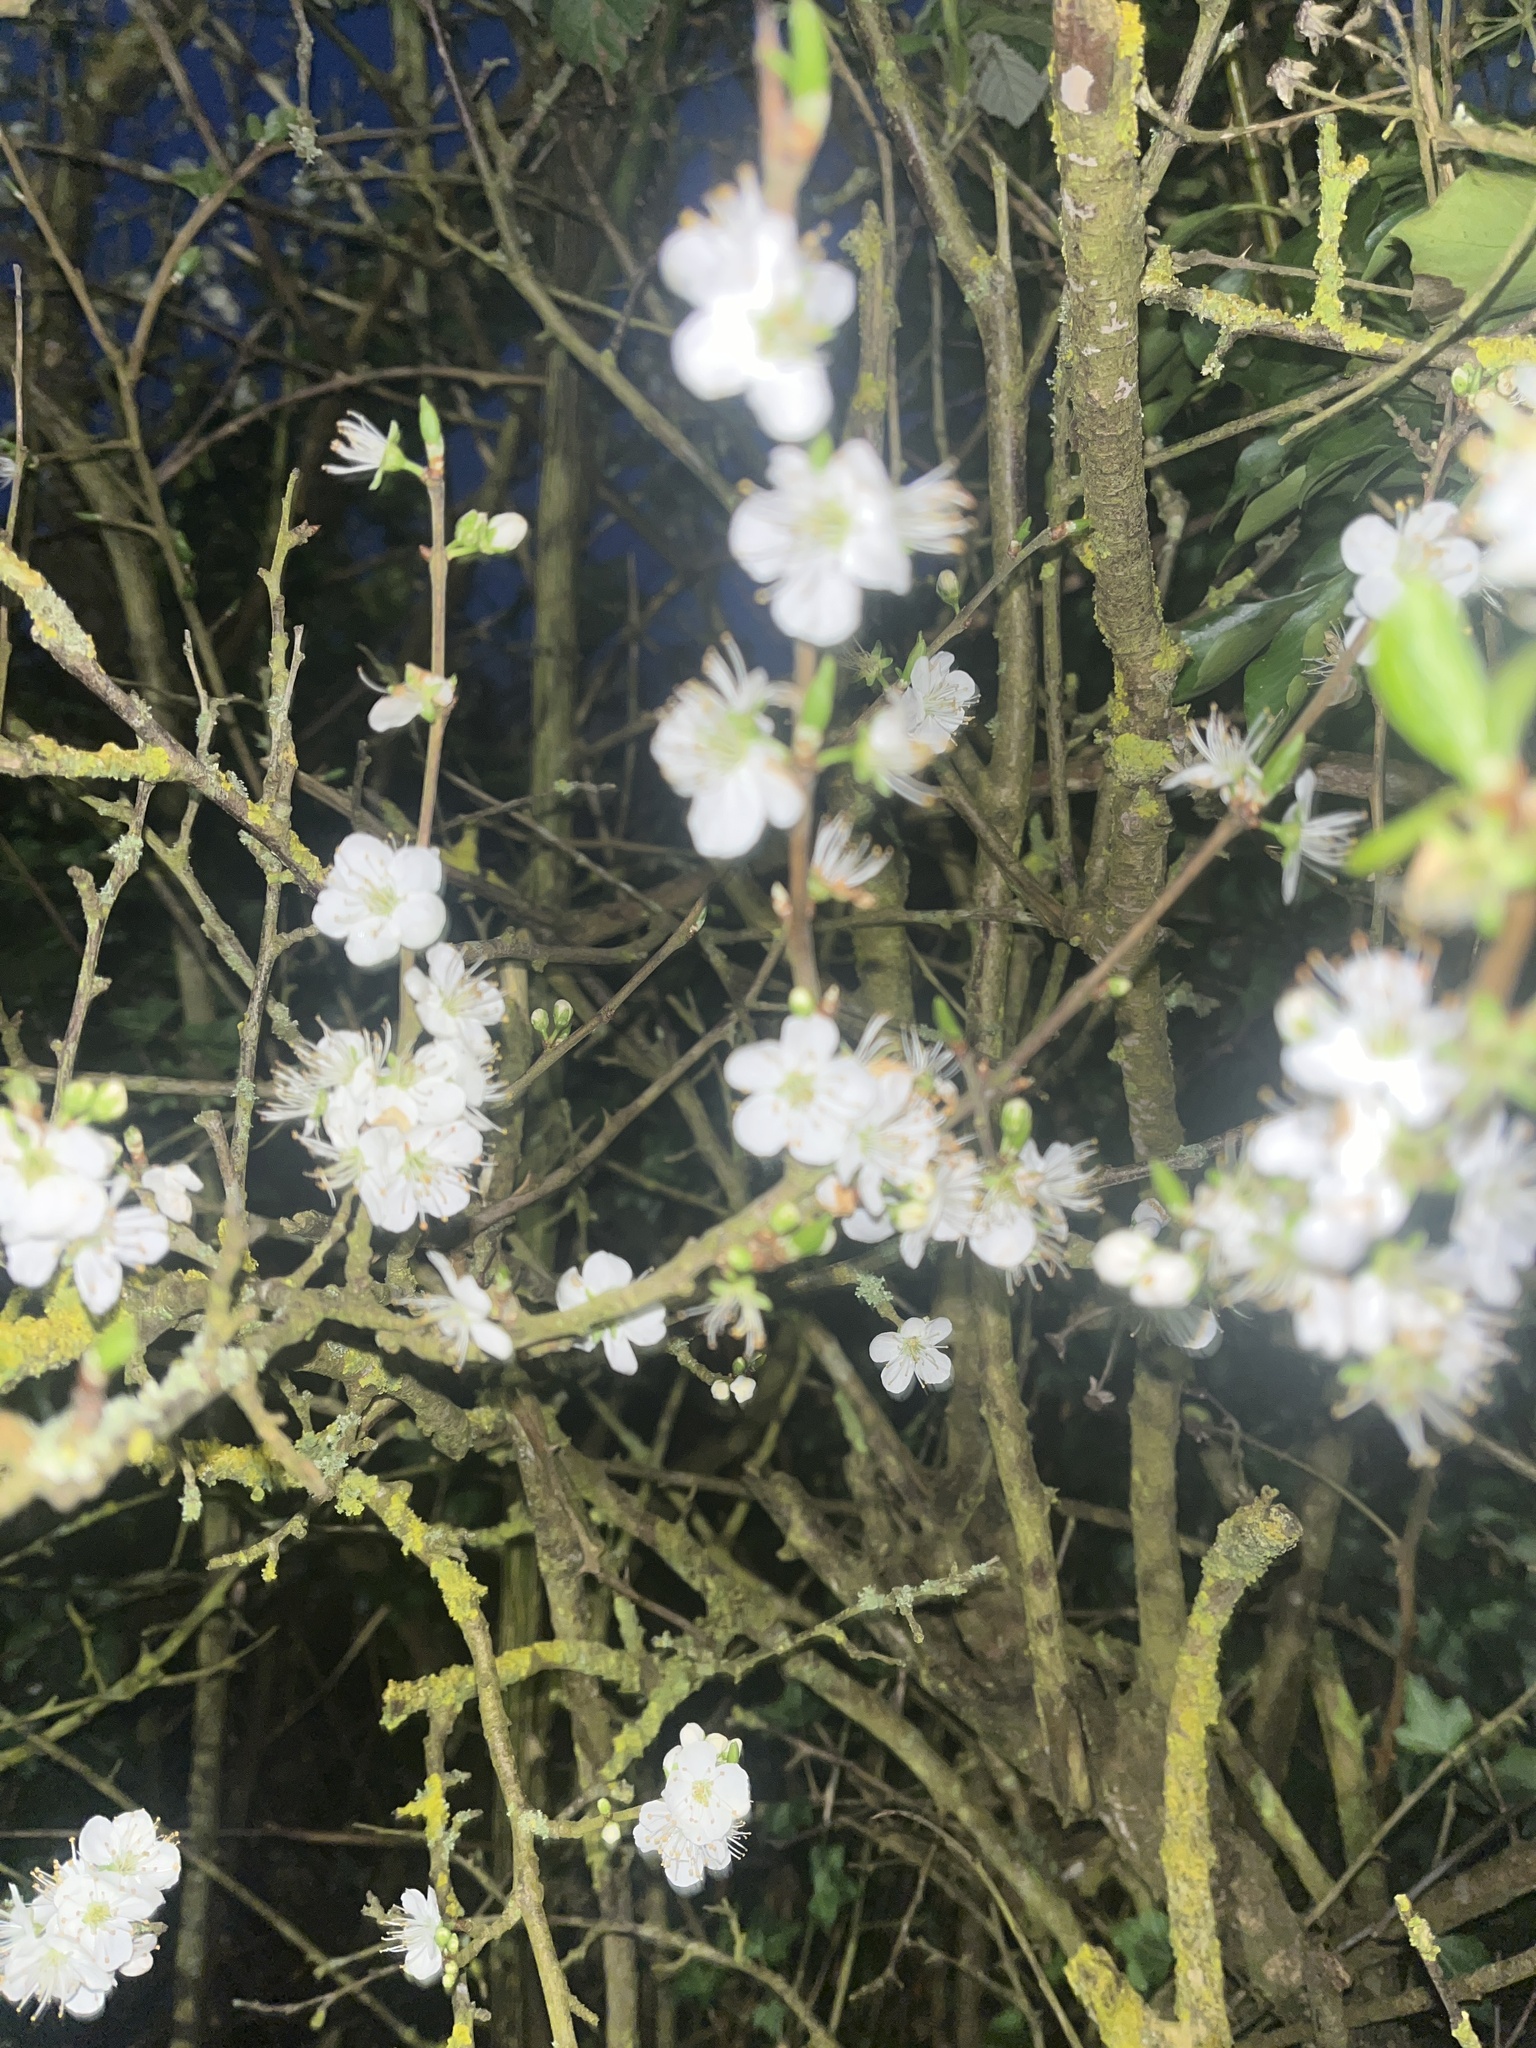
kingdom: Plantae
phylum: Tracheophyta
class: Magnoliopsida
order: Rosales
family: Rosaceae
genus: Prunus
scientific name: Prunus cerasifera
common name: Cherry plum
